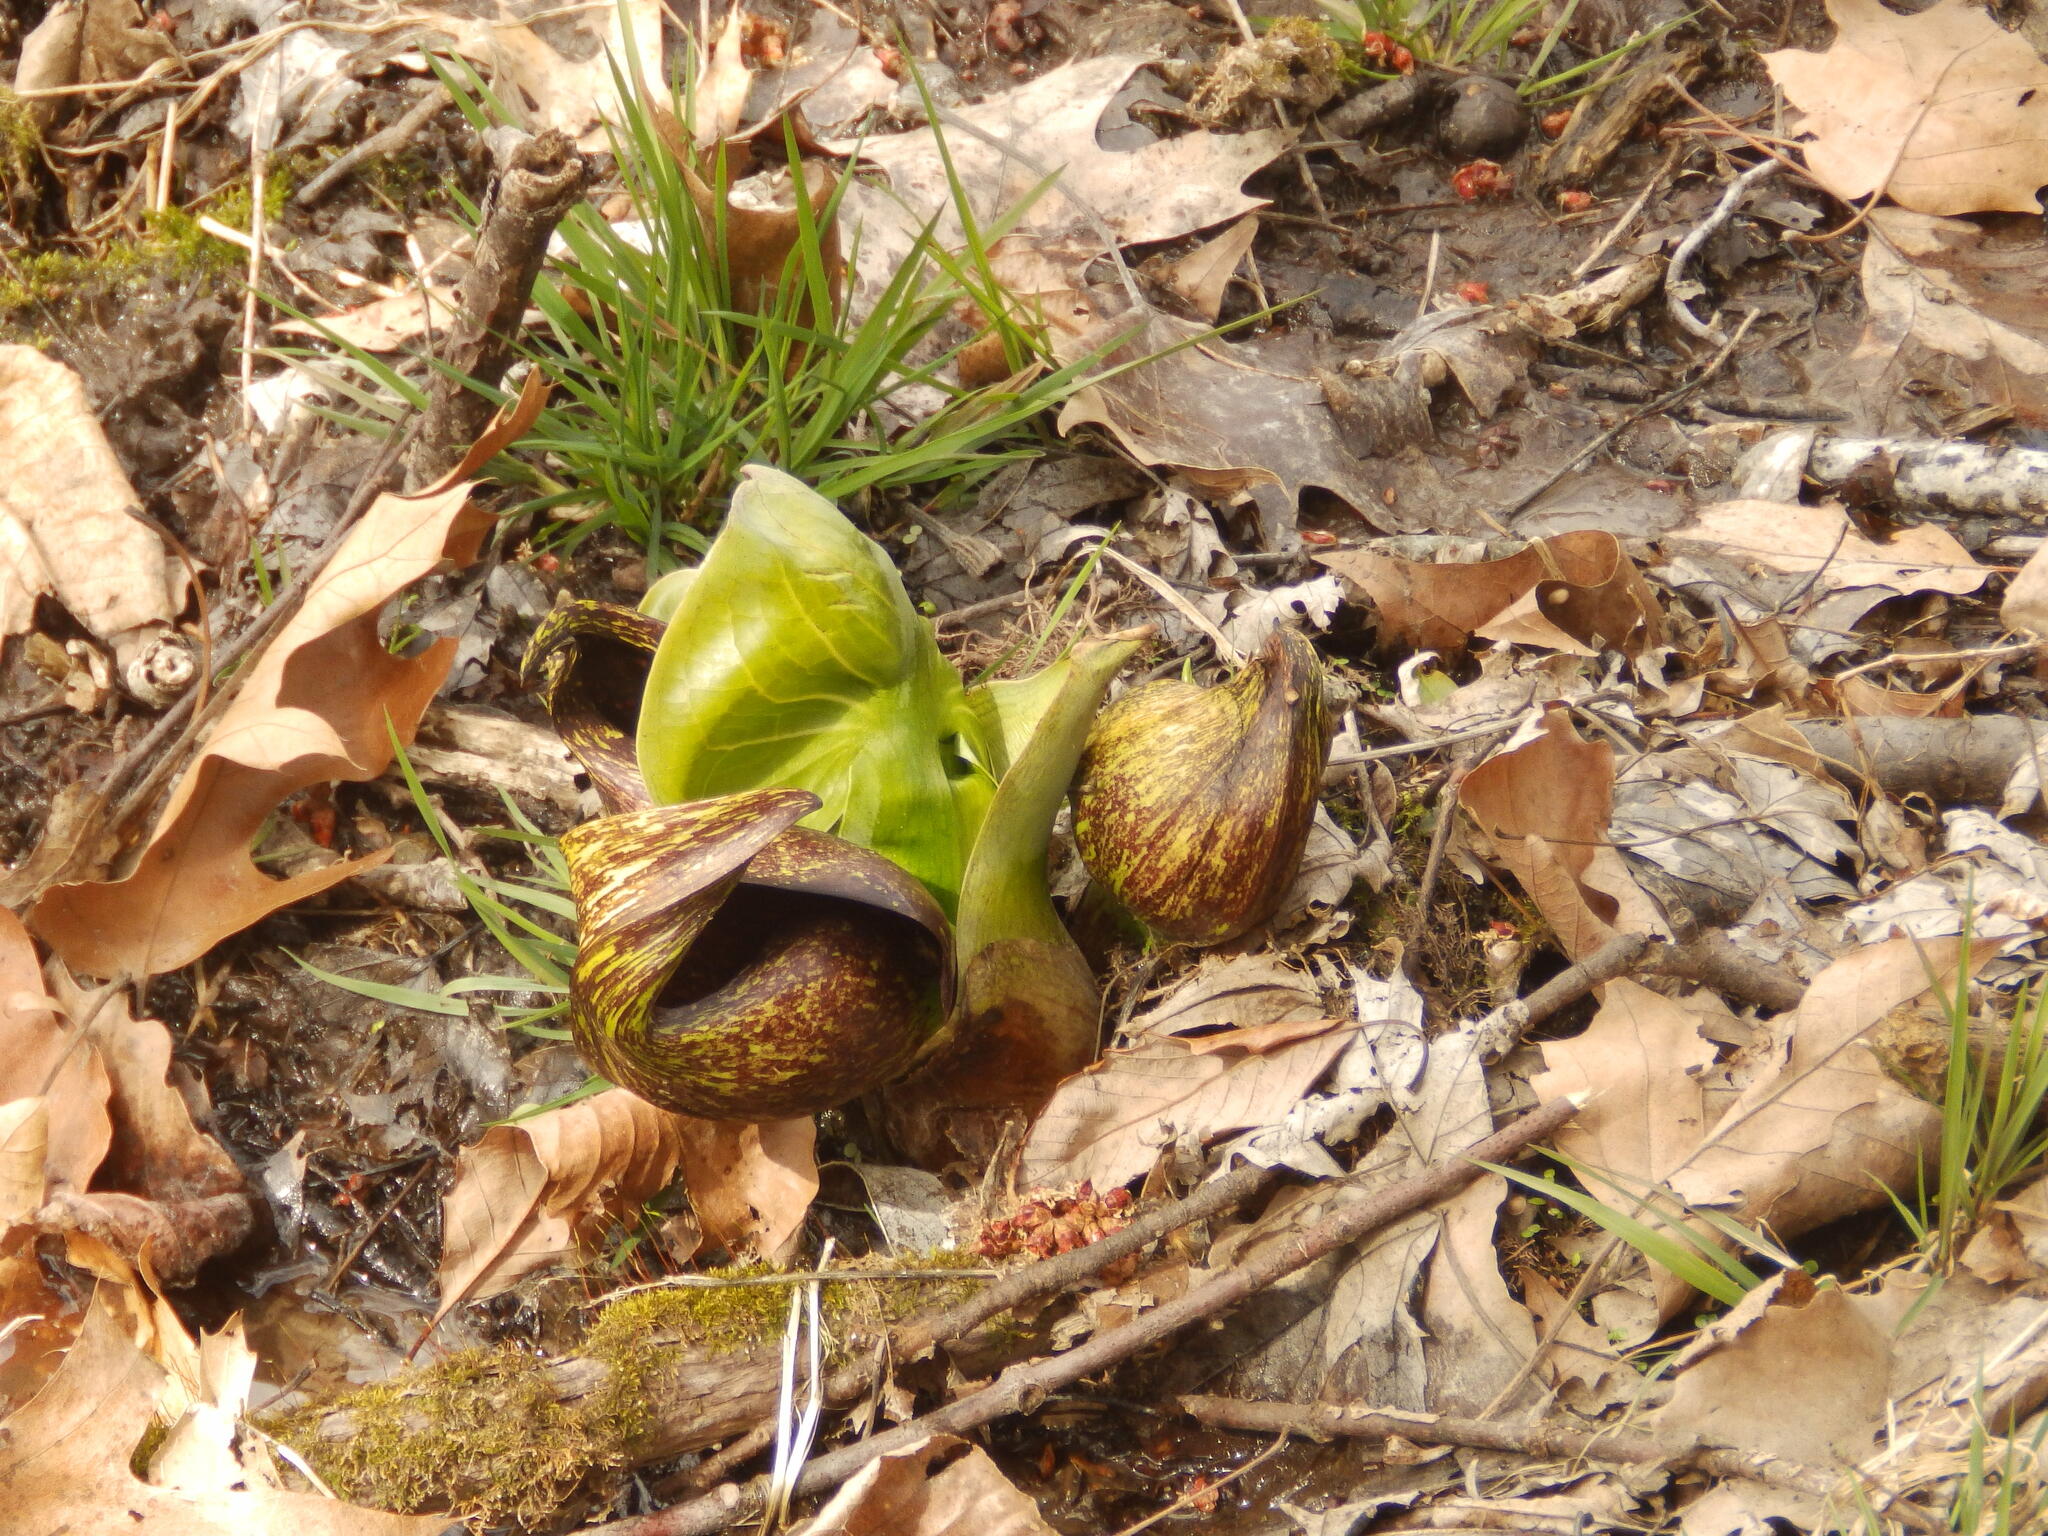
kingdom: Plantae
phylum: Tracheophyta
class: Liliopsida
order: Alismatales
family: Araceae
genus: Symplocarpus
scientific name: Symplocarpus foetidus
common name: Eastern skunk cabbage
